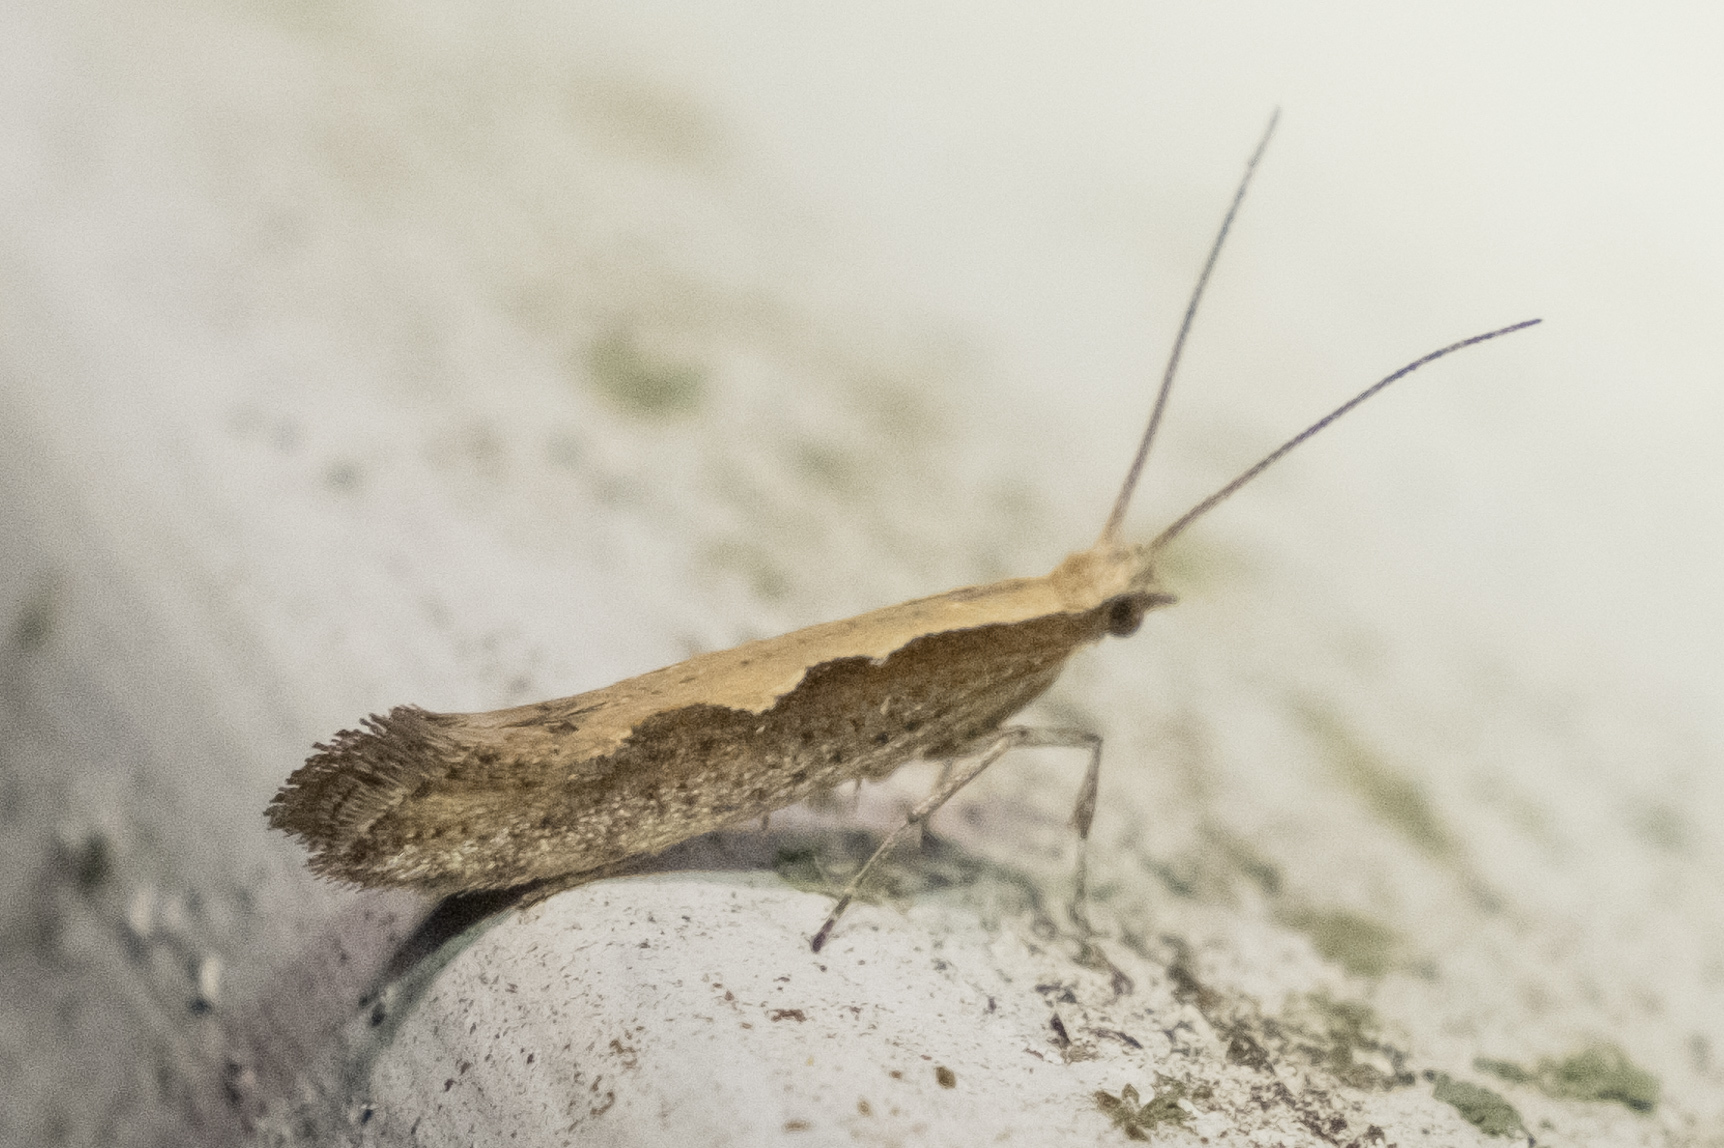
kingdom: Animalia
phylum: Arthropoda
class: Insecta
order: Lepidoptera
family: Plutellidae
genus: Plutella
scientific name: Plutella xylostella
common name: Diamond-back moth
